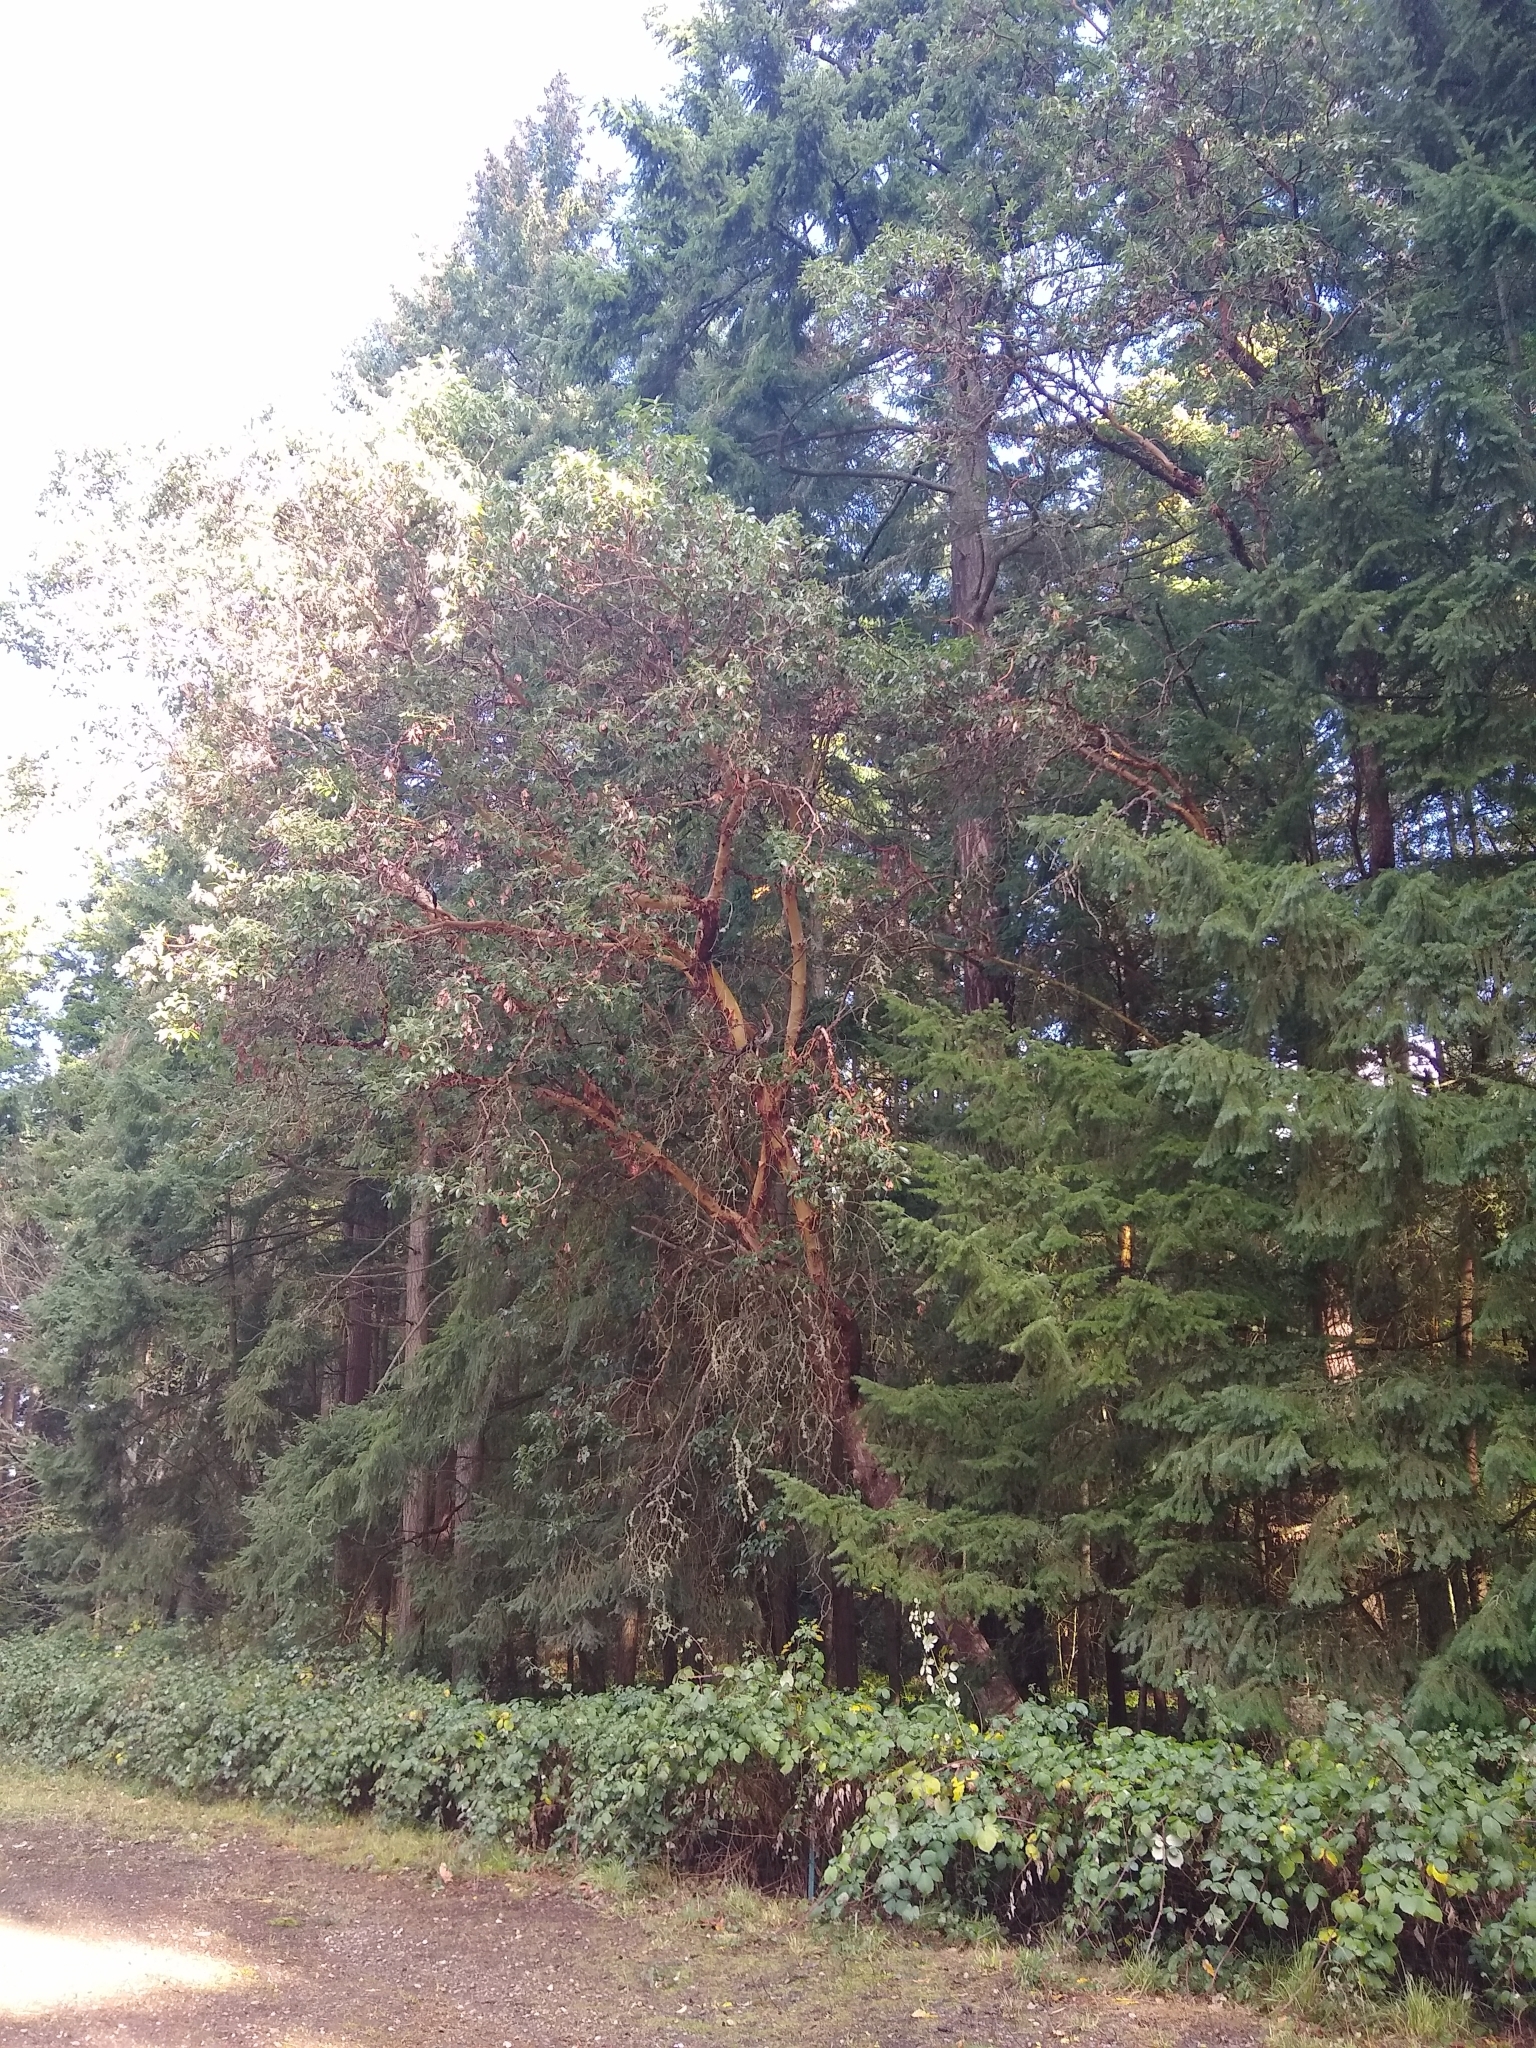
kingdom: Plantae
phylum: Tracheophyta
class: Magnoliopsida
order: Ericales
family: Ericaceae
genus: Arbutus
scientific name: Arbutus menziesii
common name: Pacific madrone
